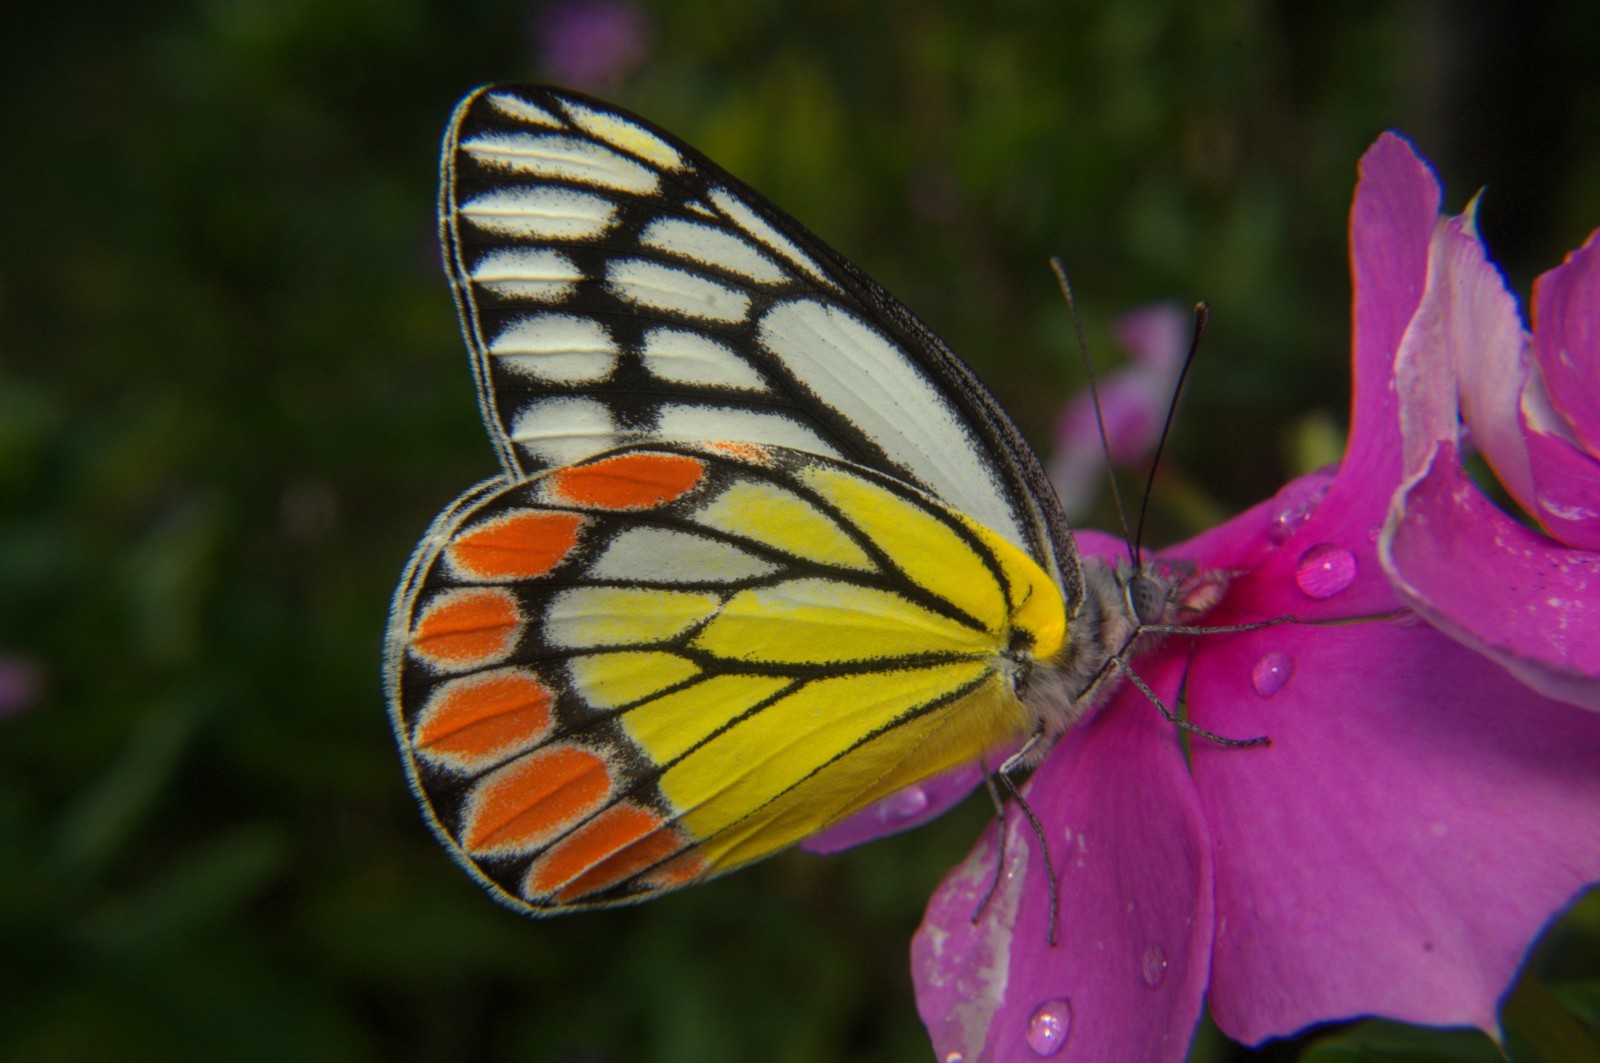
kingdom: Animalia
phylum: Arthropoda
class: Insecta
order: Lepidoptera
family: Pieridae
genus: Delias
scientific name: Delias eucharis
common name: Common jezebel
